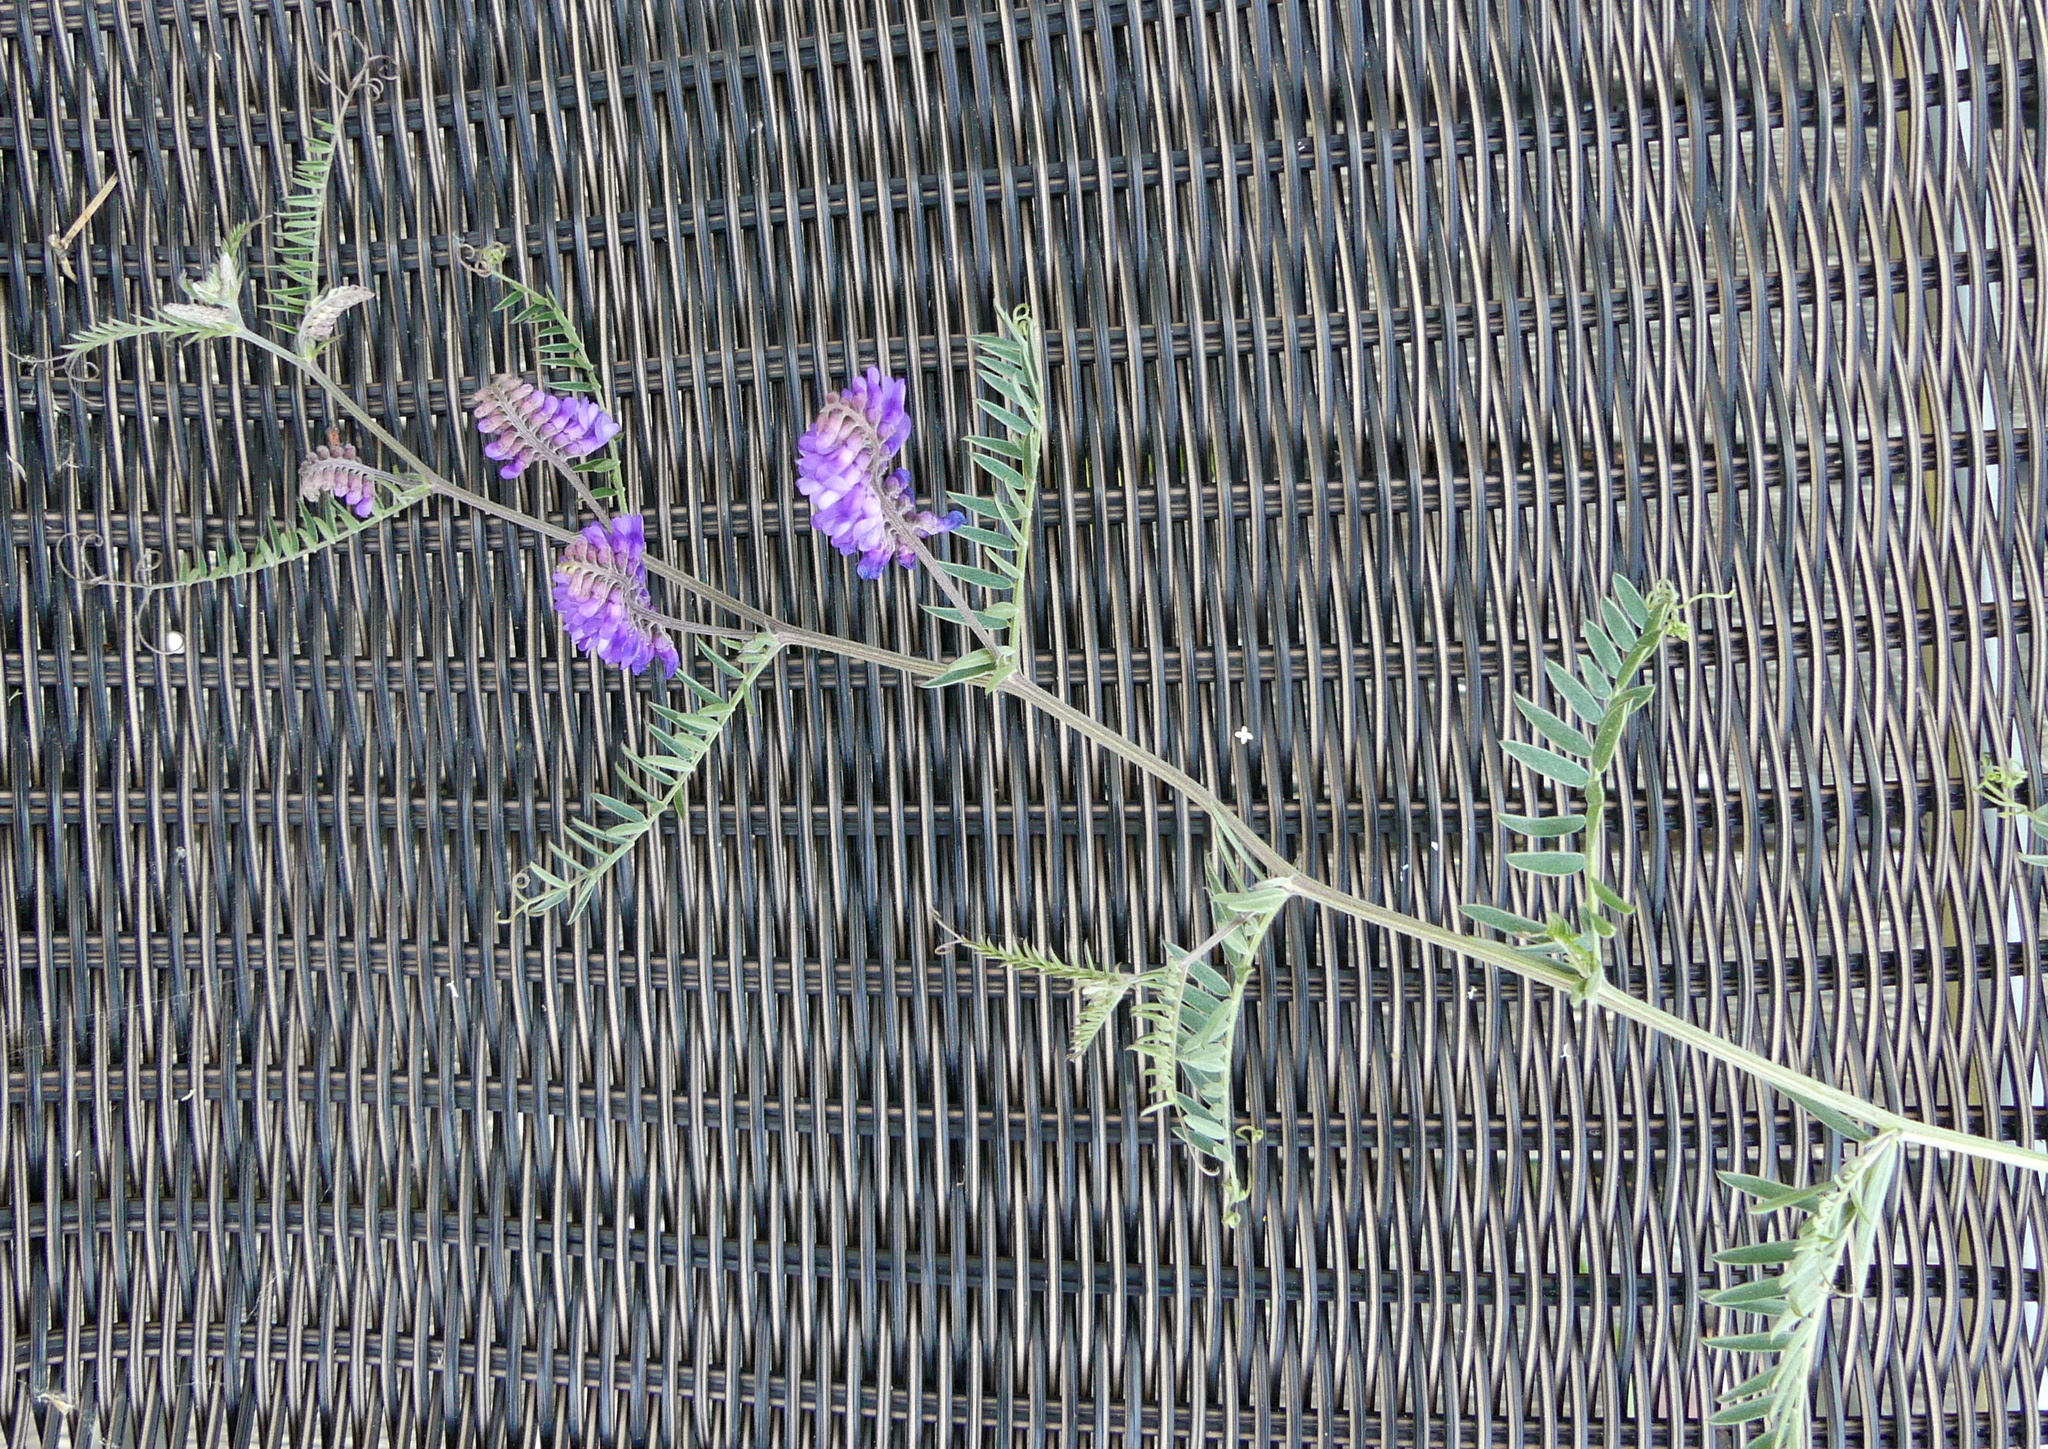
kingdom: Plantae
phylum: Tracheophyta
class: Magnoliopsida
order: Fabales
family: Fabaceae
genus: Vicia
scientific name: Vicia cracca
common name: Bird vetch
